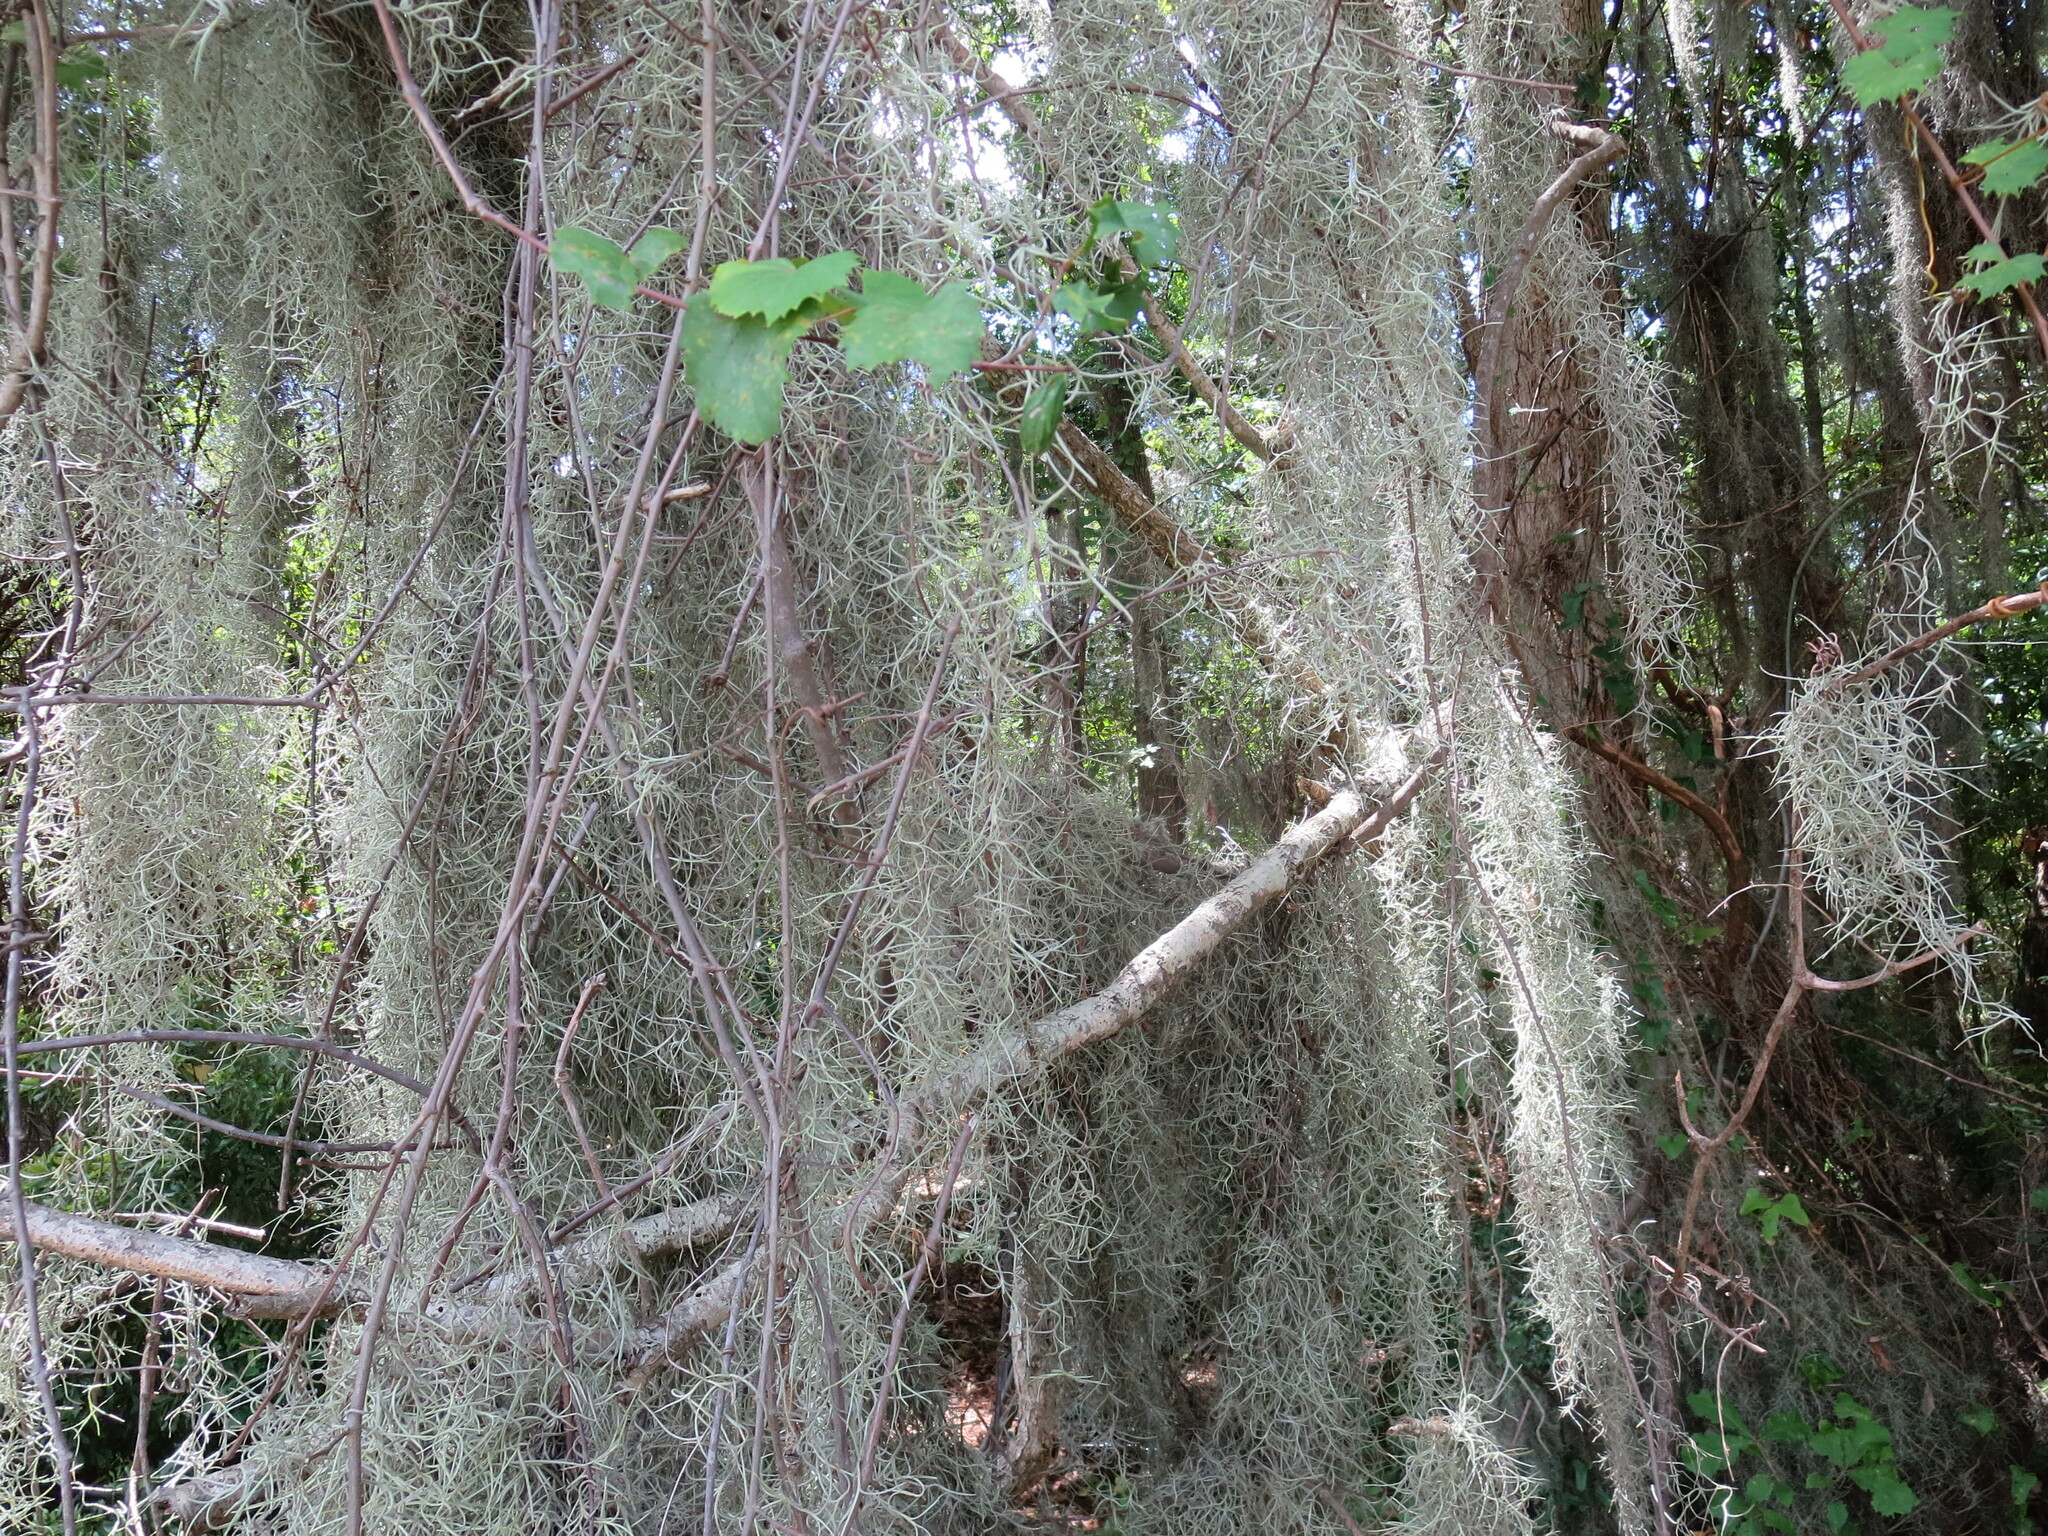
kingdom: Plantae
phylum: Tracheophyta
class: Liliopsida
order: Poales
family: Bromeliaceae
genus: Tillandsia
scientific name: Tillandsia usneoides
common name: Spanish moss
